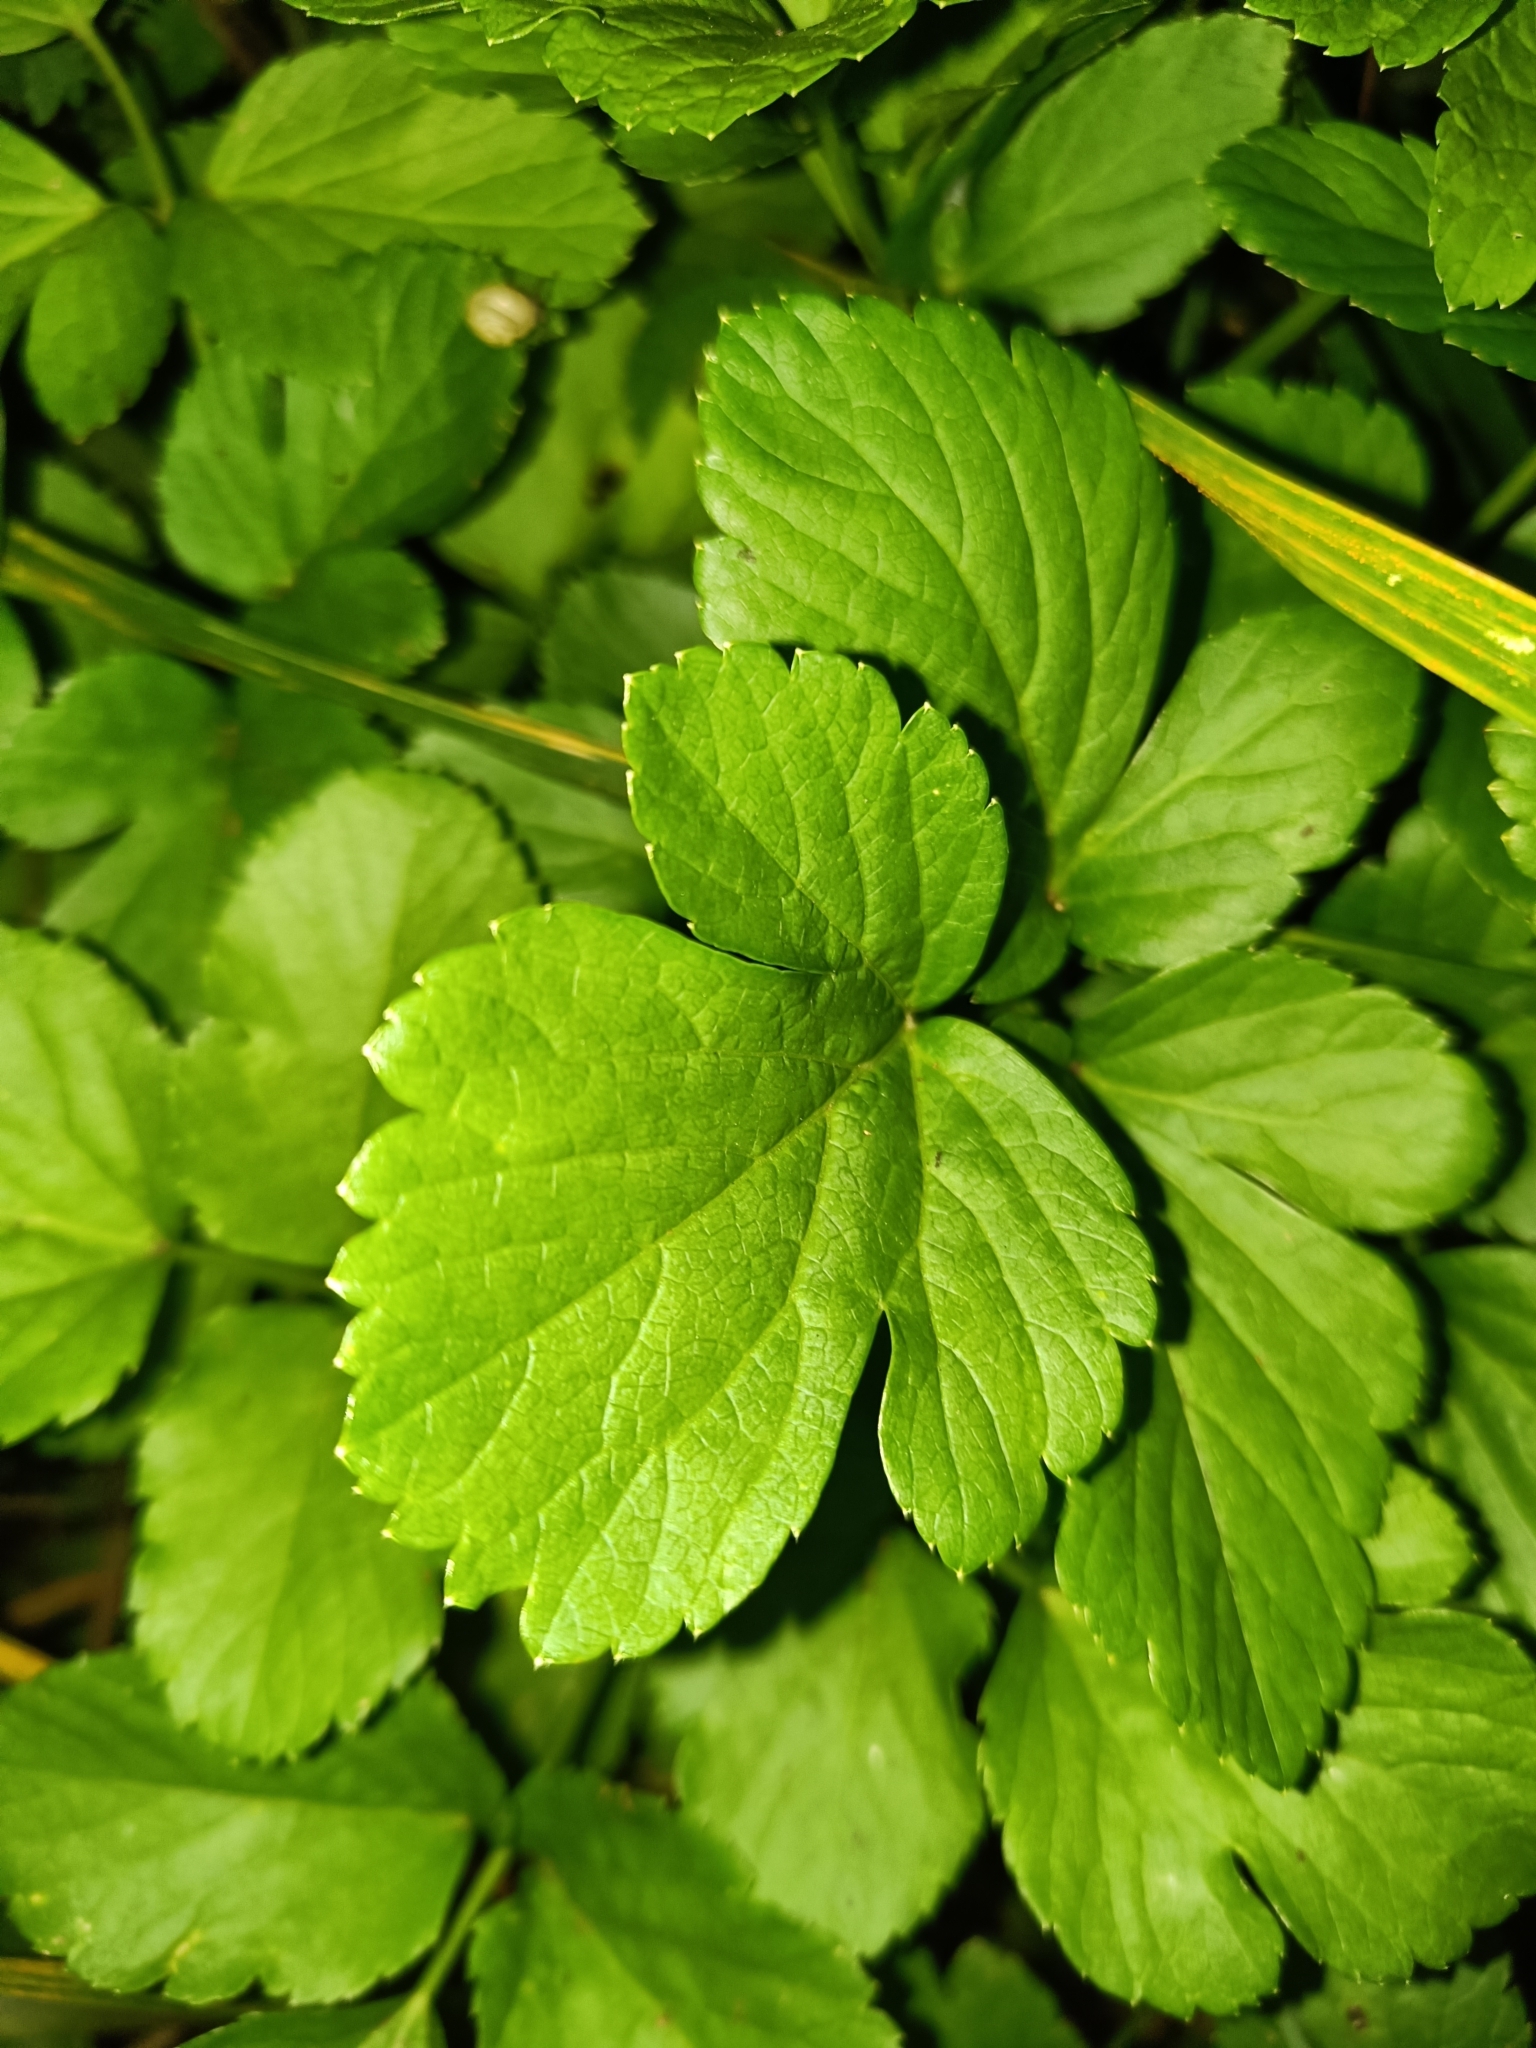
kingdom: Plantae
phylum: Tracheophyta
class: Magnoliopsida
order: Apiales
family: Apiaceae
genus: Smyrnium
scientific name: Smyrnium olusatrum
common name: Alexanders
